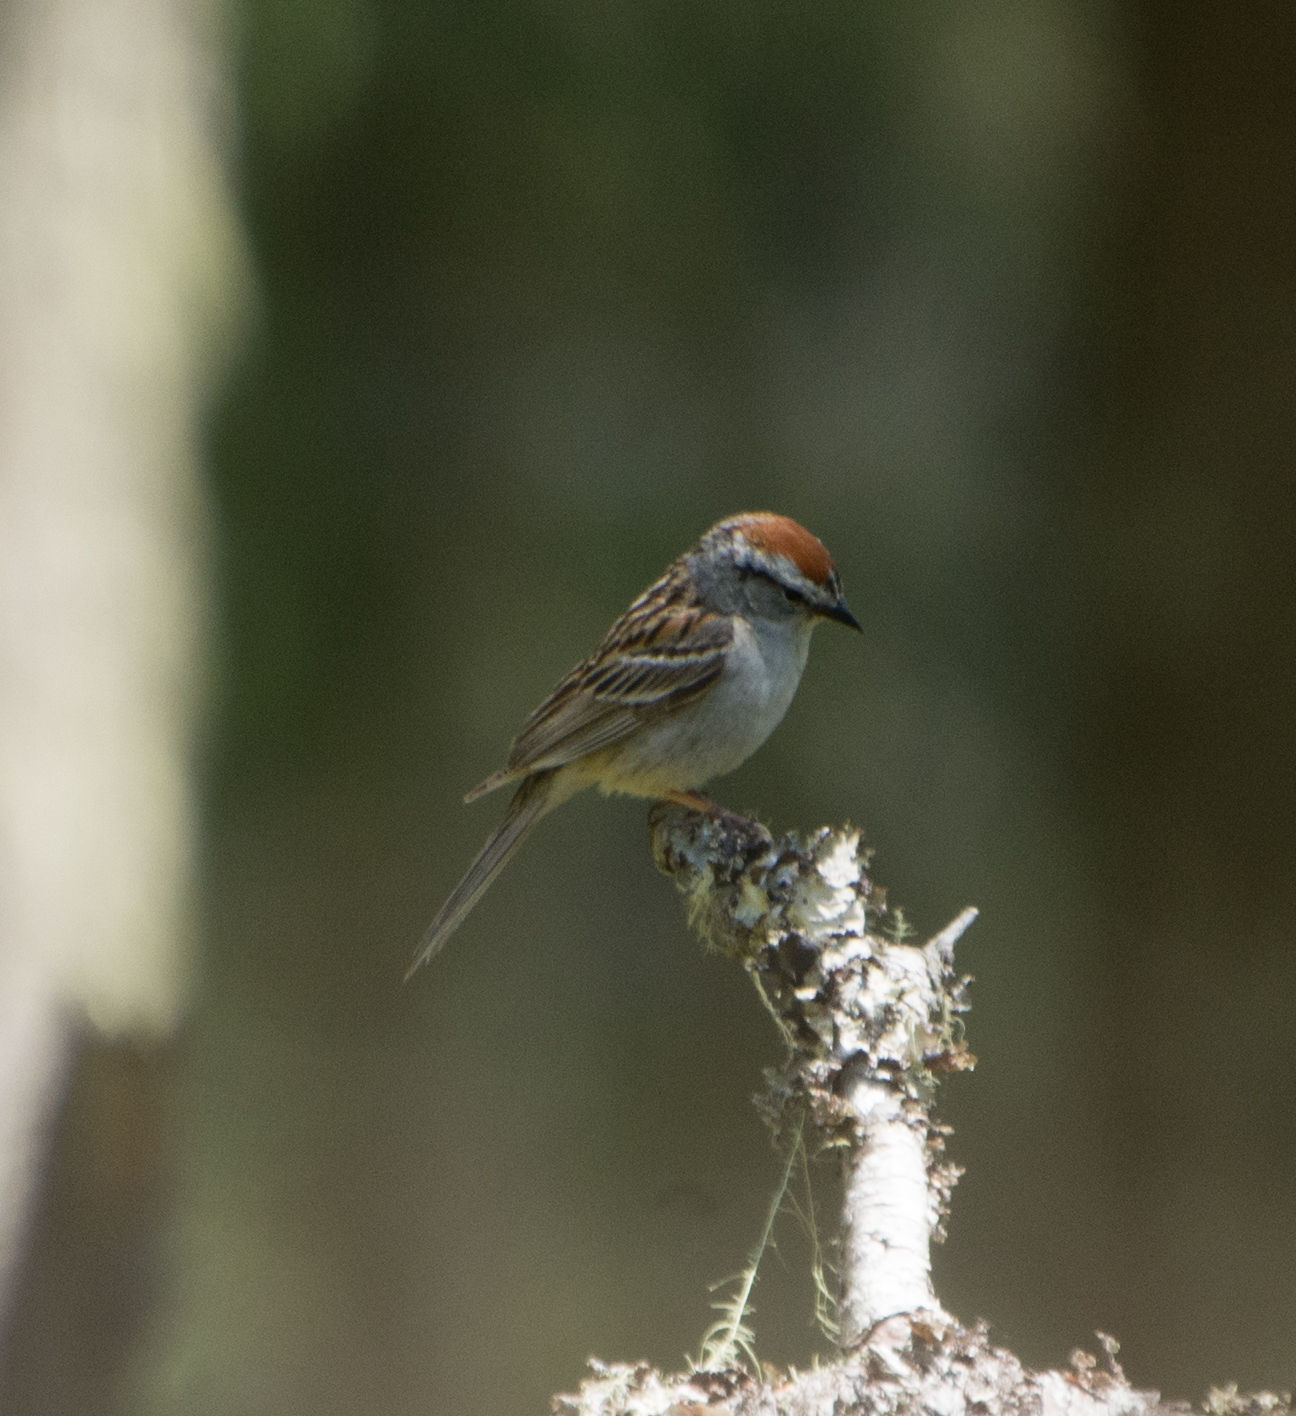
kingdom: Animalia
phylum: Chordata
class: Aves
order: Passeriformes
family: Passerellidae
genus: Spizella
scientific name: Spizella passerina
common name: Chipping sparrow
